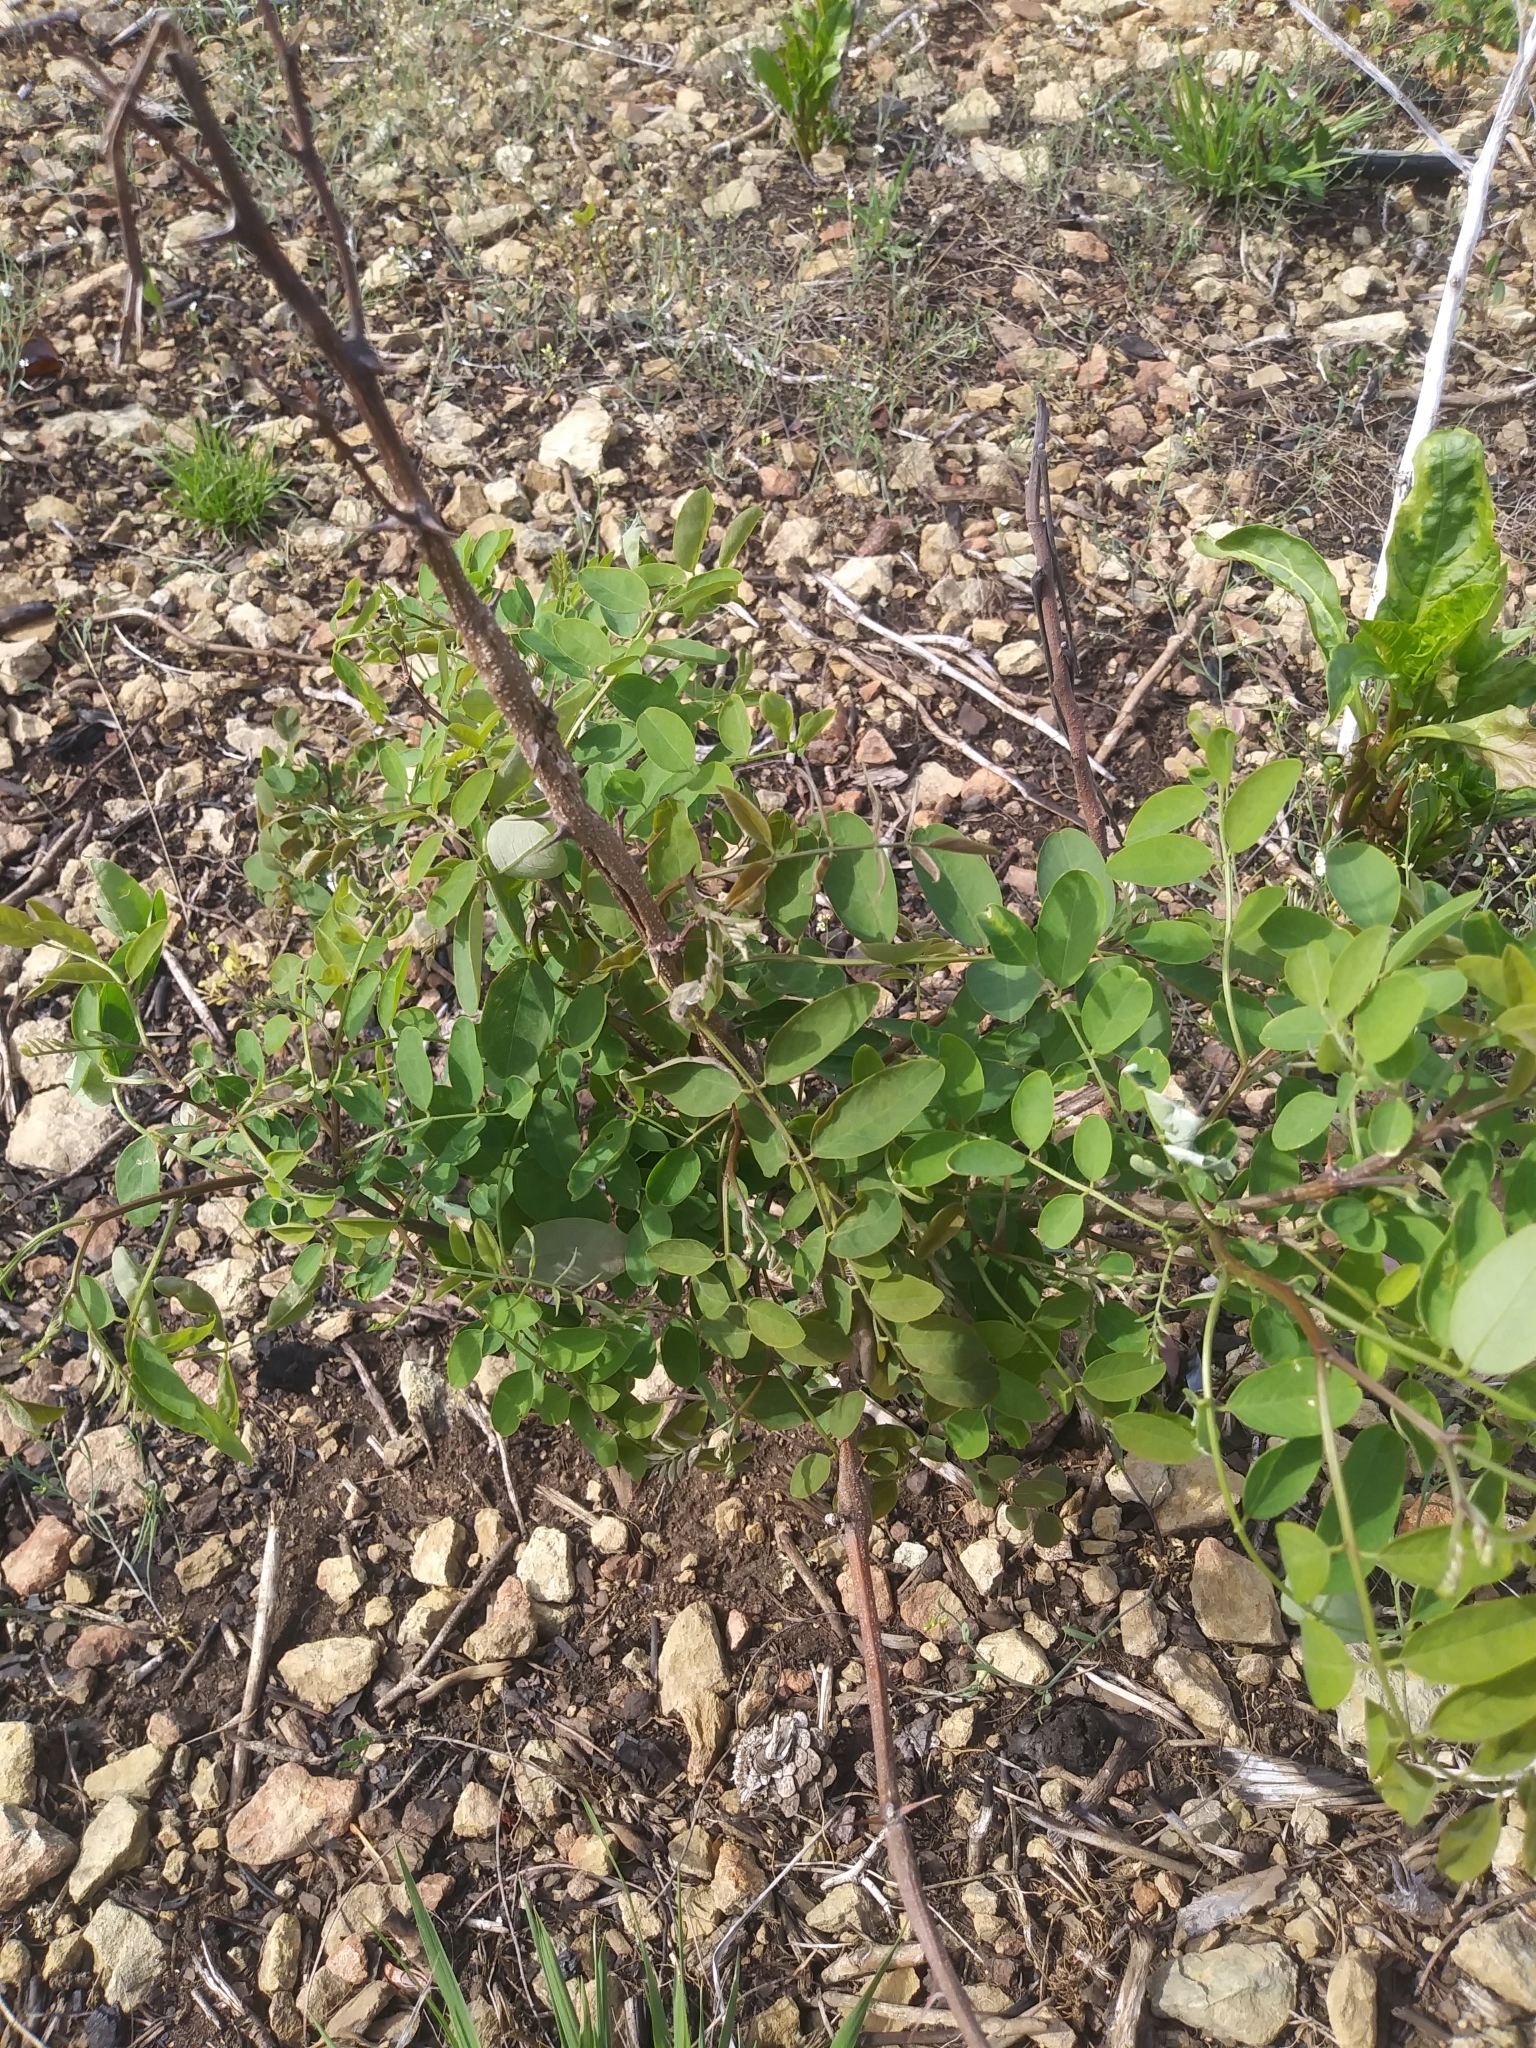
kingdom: Plantae
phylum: Tracheophyta
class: Magnoliopsida
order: Fabales
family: Fabaceae
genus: Robinia
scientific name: Robinia pseudoacacia
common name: Black locust
